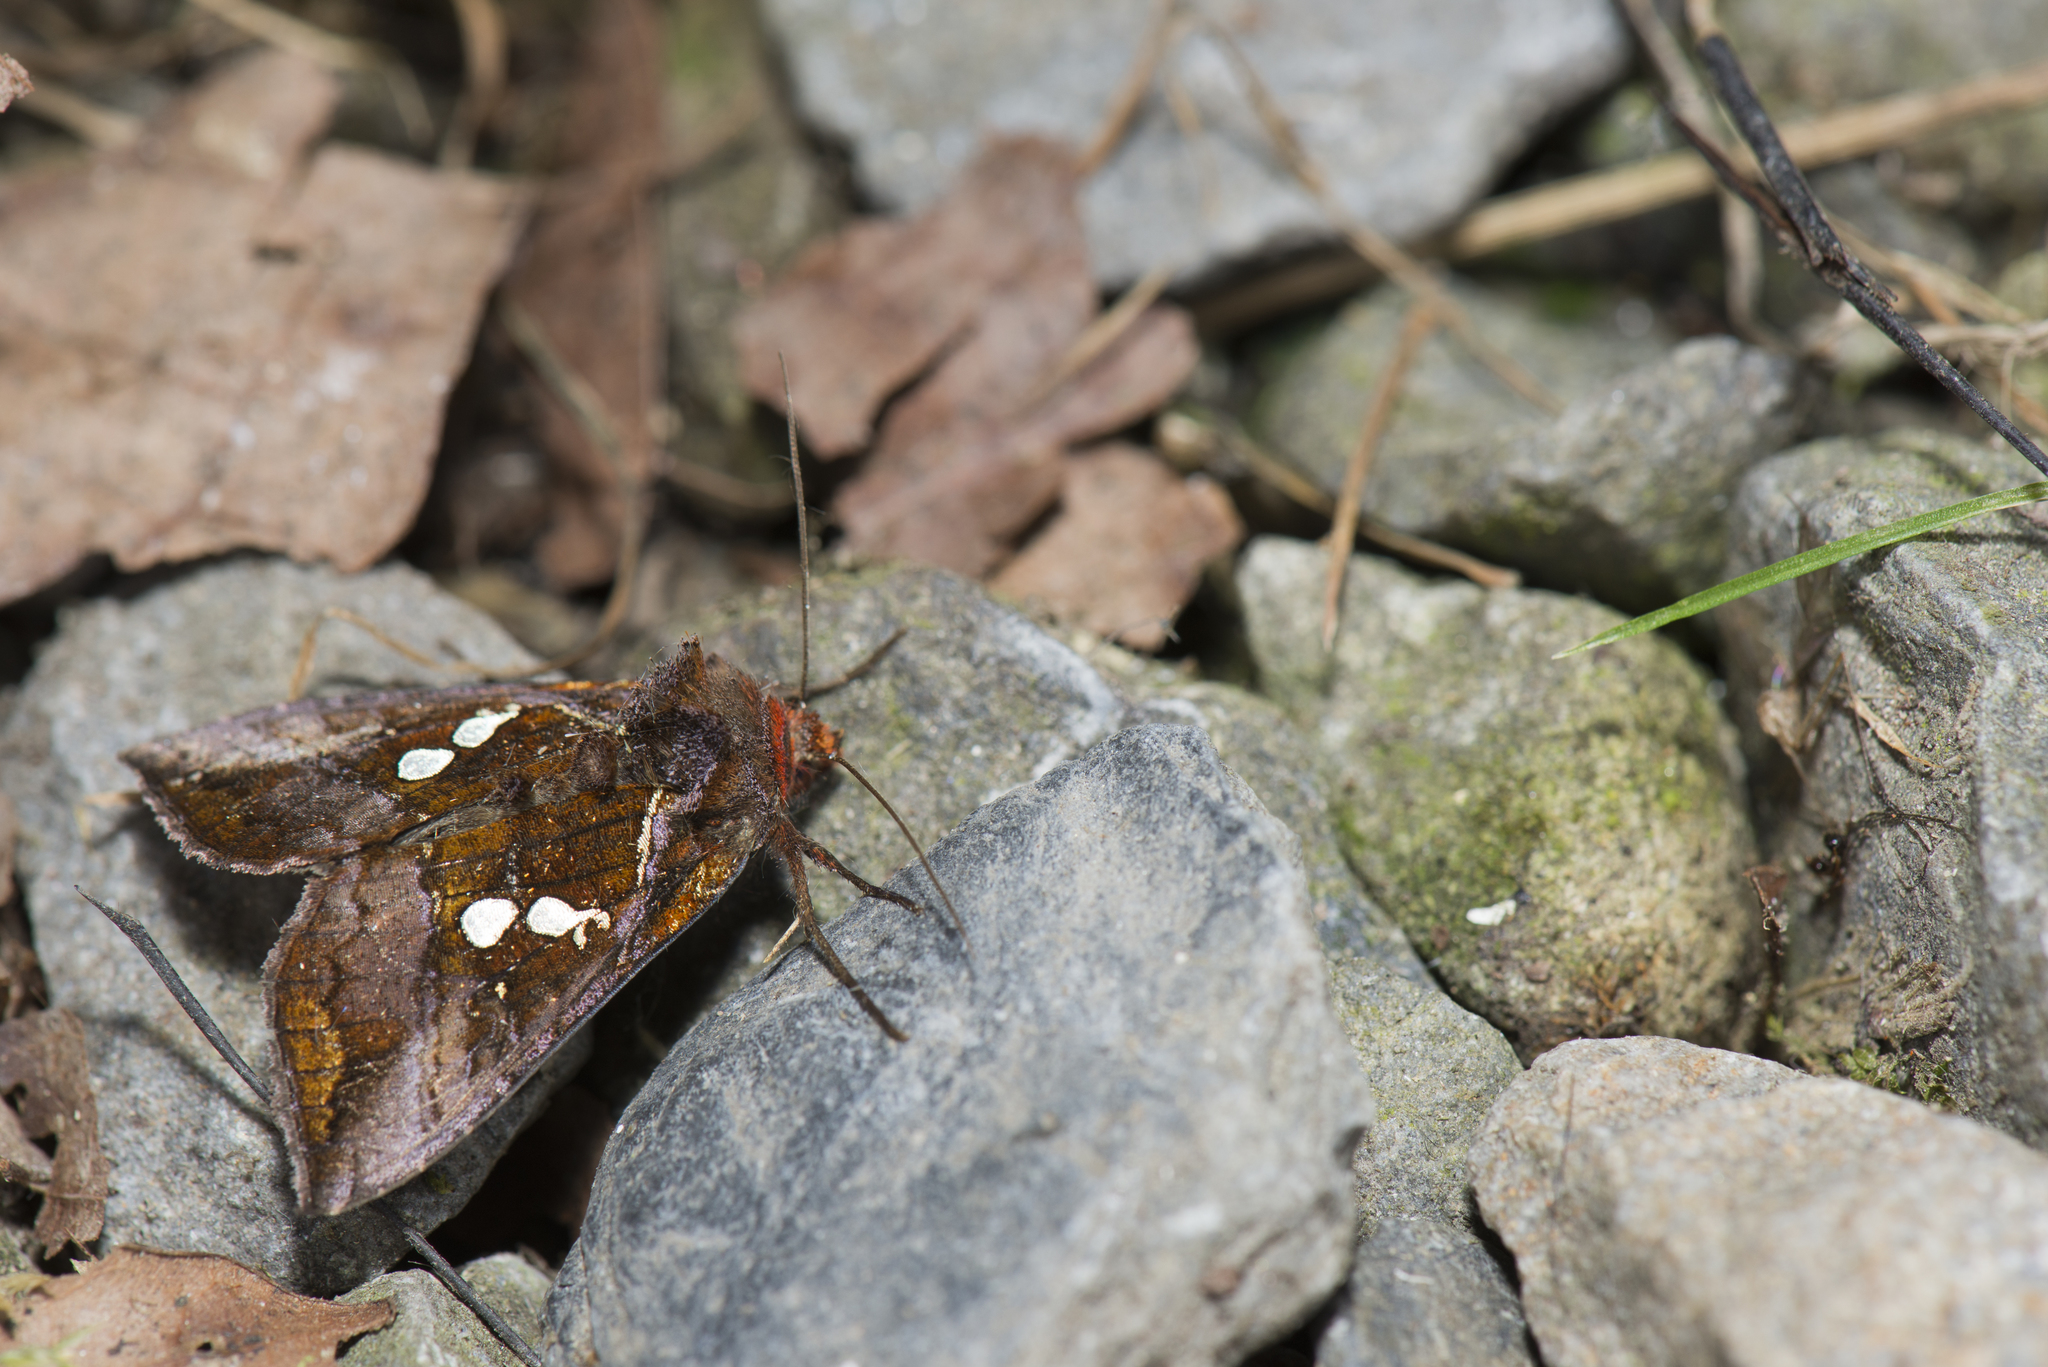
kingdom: Animalia
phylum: Arthropoda
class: Insecta
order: Lepidoptera
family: Noctuidae
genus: Antoculeora
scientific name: Antoculeora yoshimotoi
